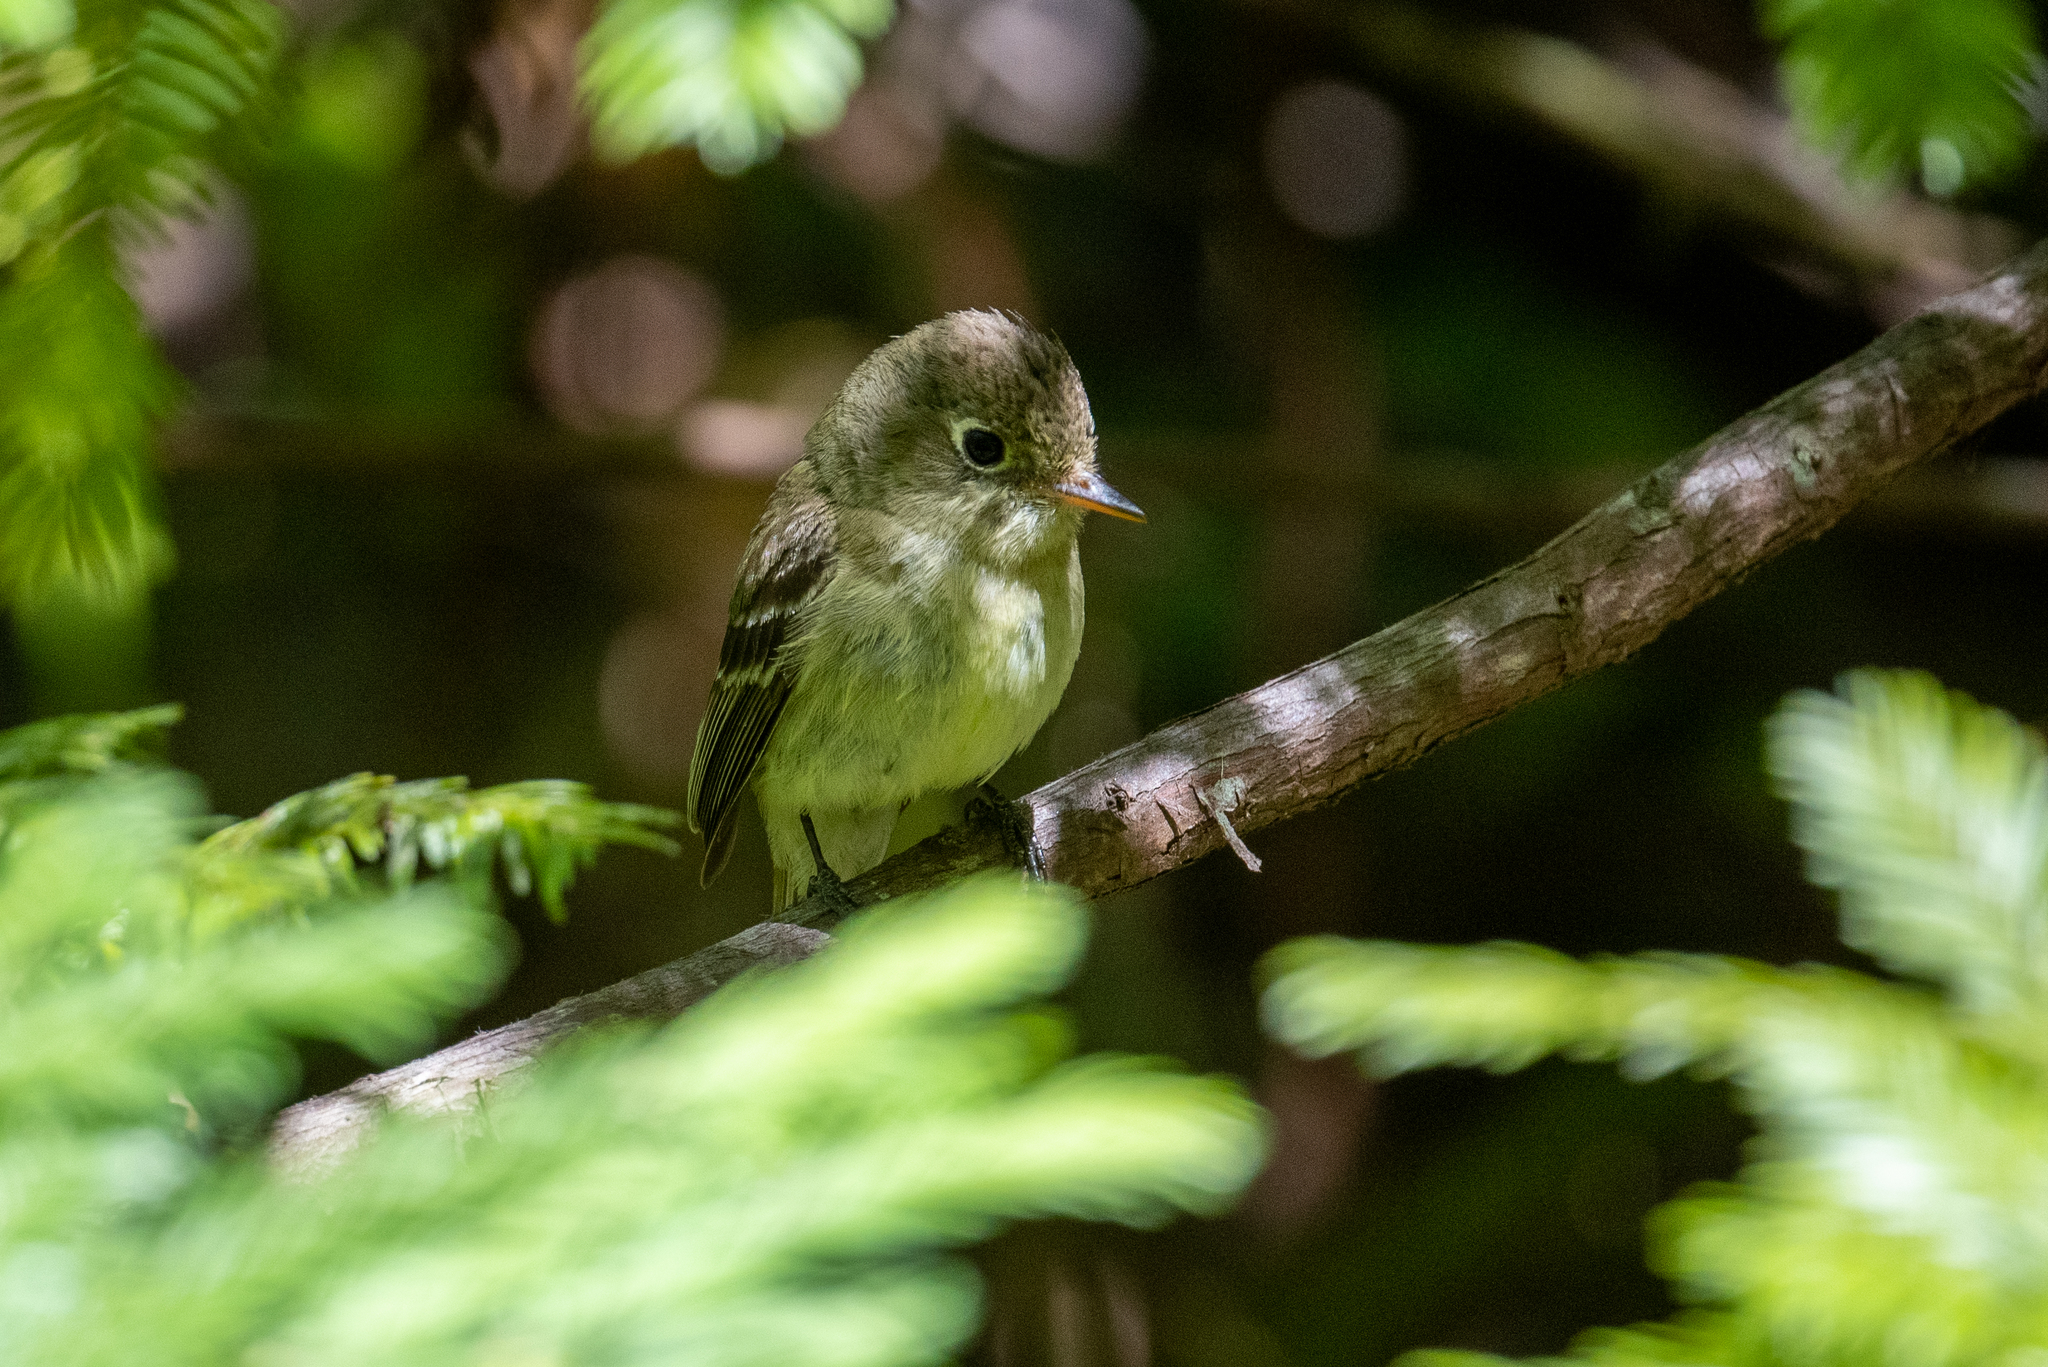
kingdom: Animalia
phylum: Chordata
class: Aves
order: Passeriformes
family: Tyrannidae
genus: Empidonax
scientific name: Empidonax difficilis
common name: Pacific-slope flycatcher
